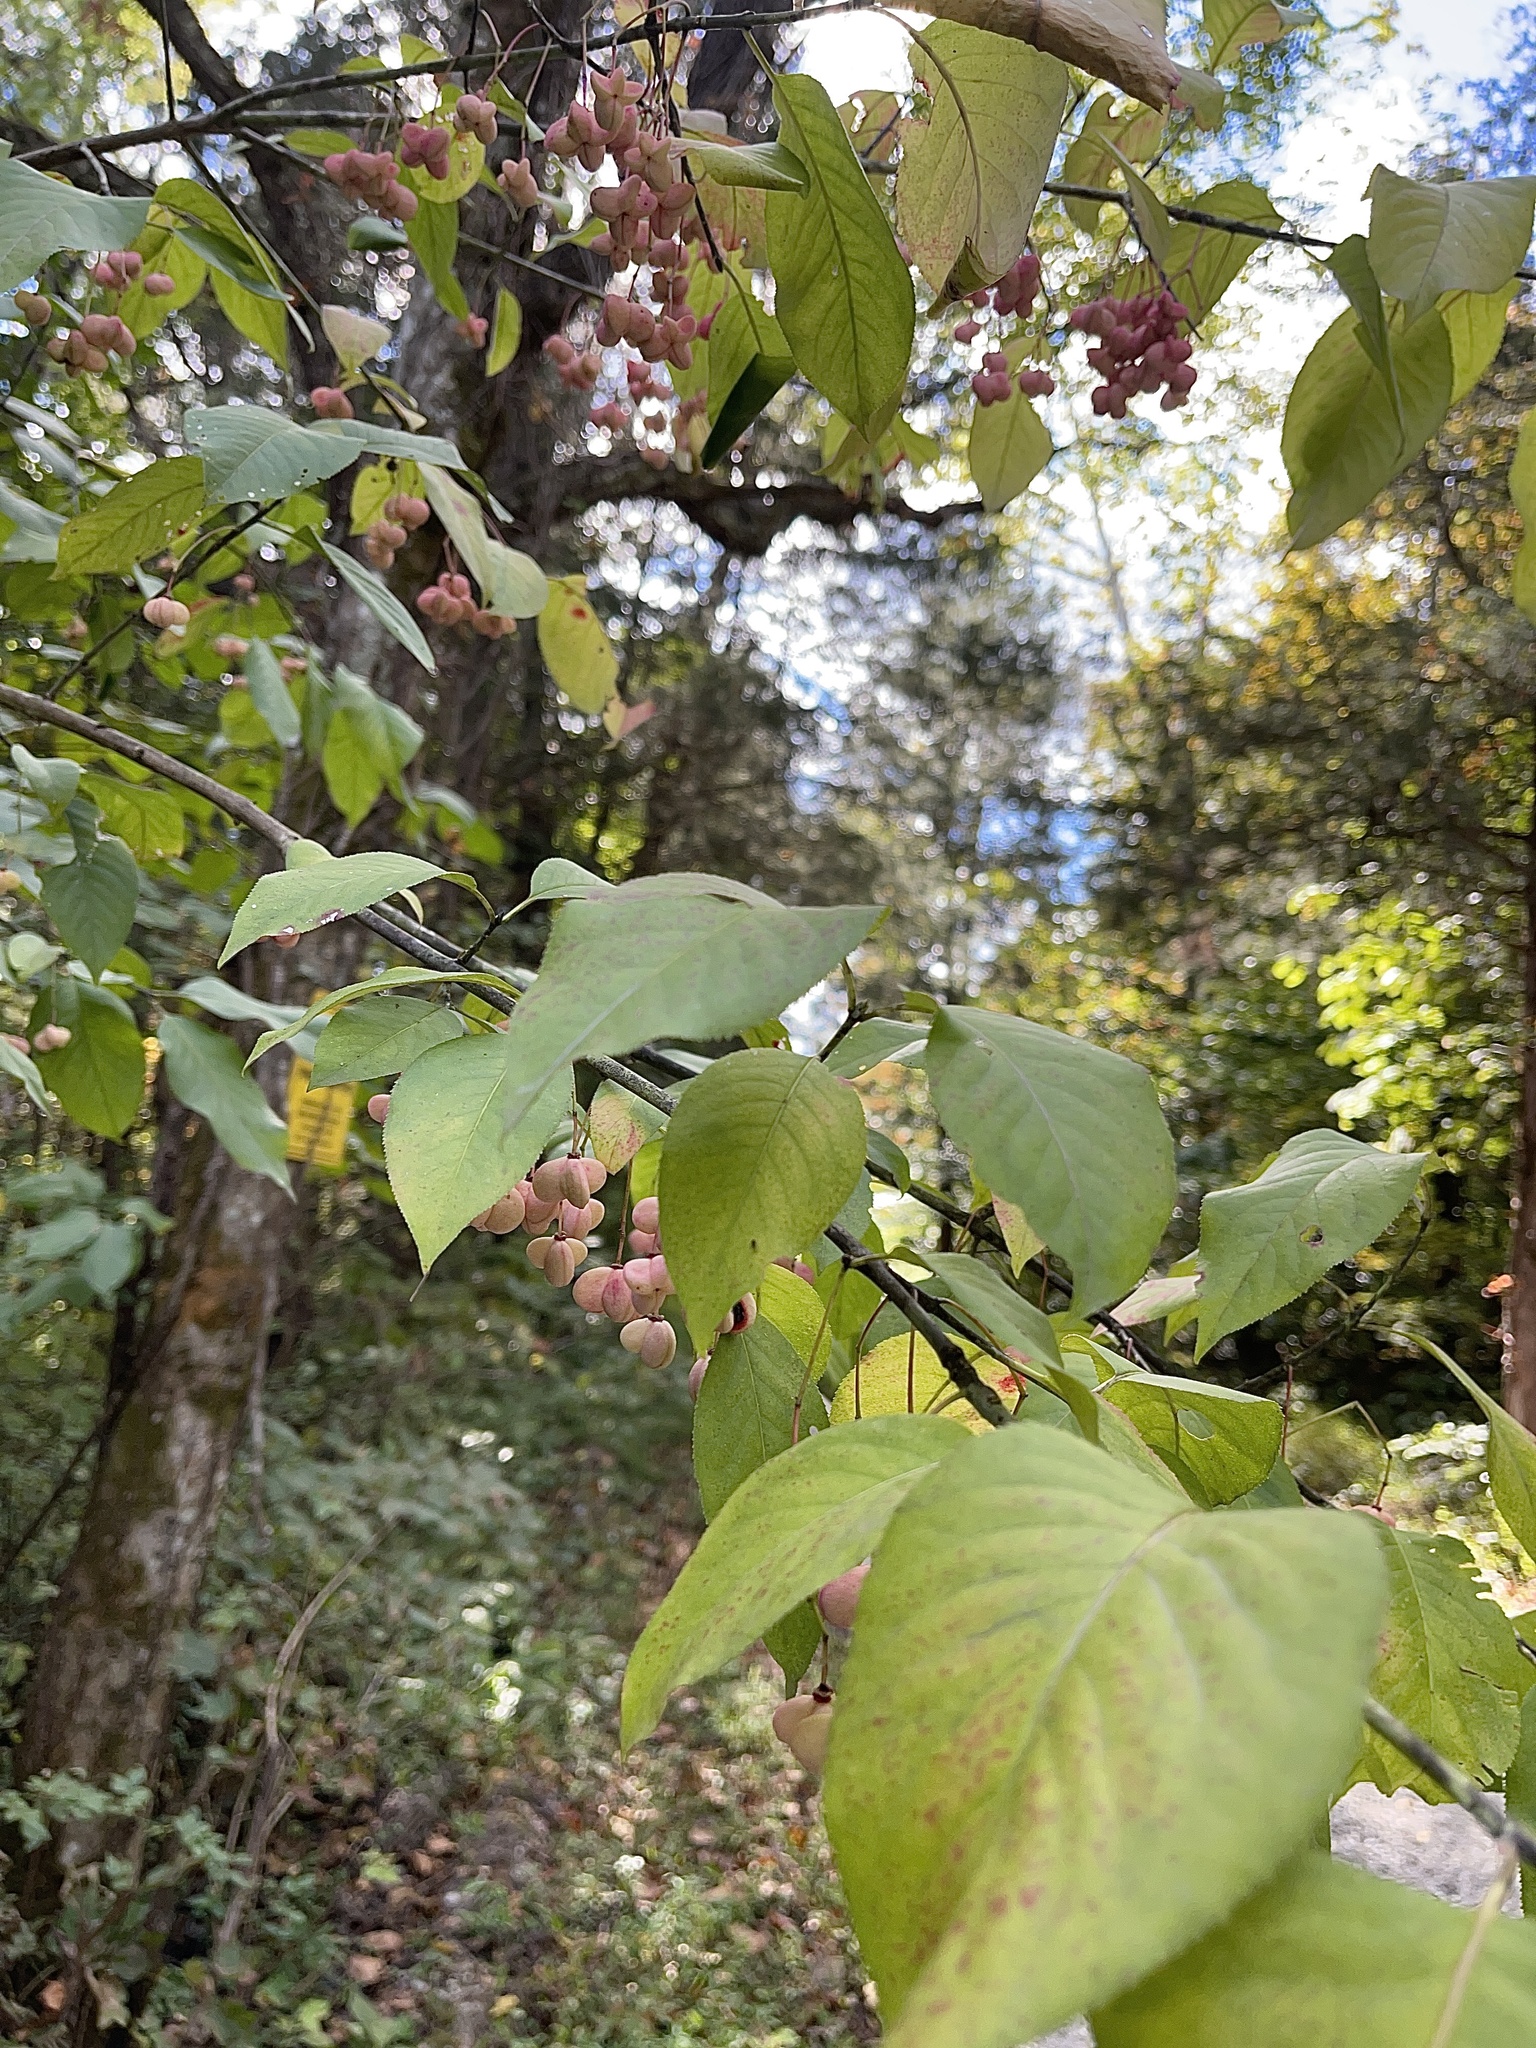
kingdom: Plantae
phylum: Tracheophyta
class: Magnoliopsida
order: Celastrales
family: Celastraceae
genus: Euonymus
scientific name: Euonymus atropurpureus
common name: Eastern wahoo
